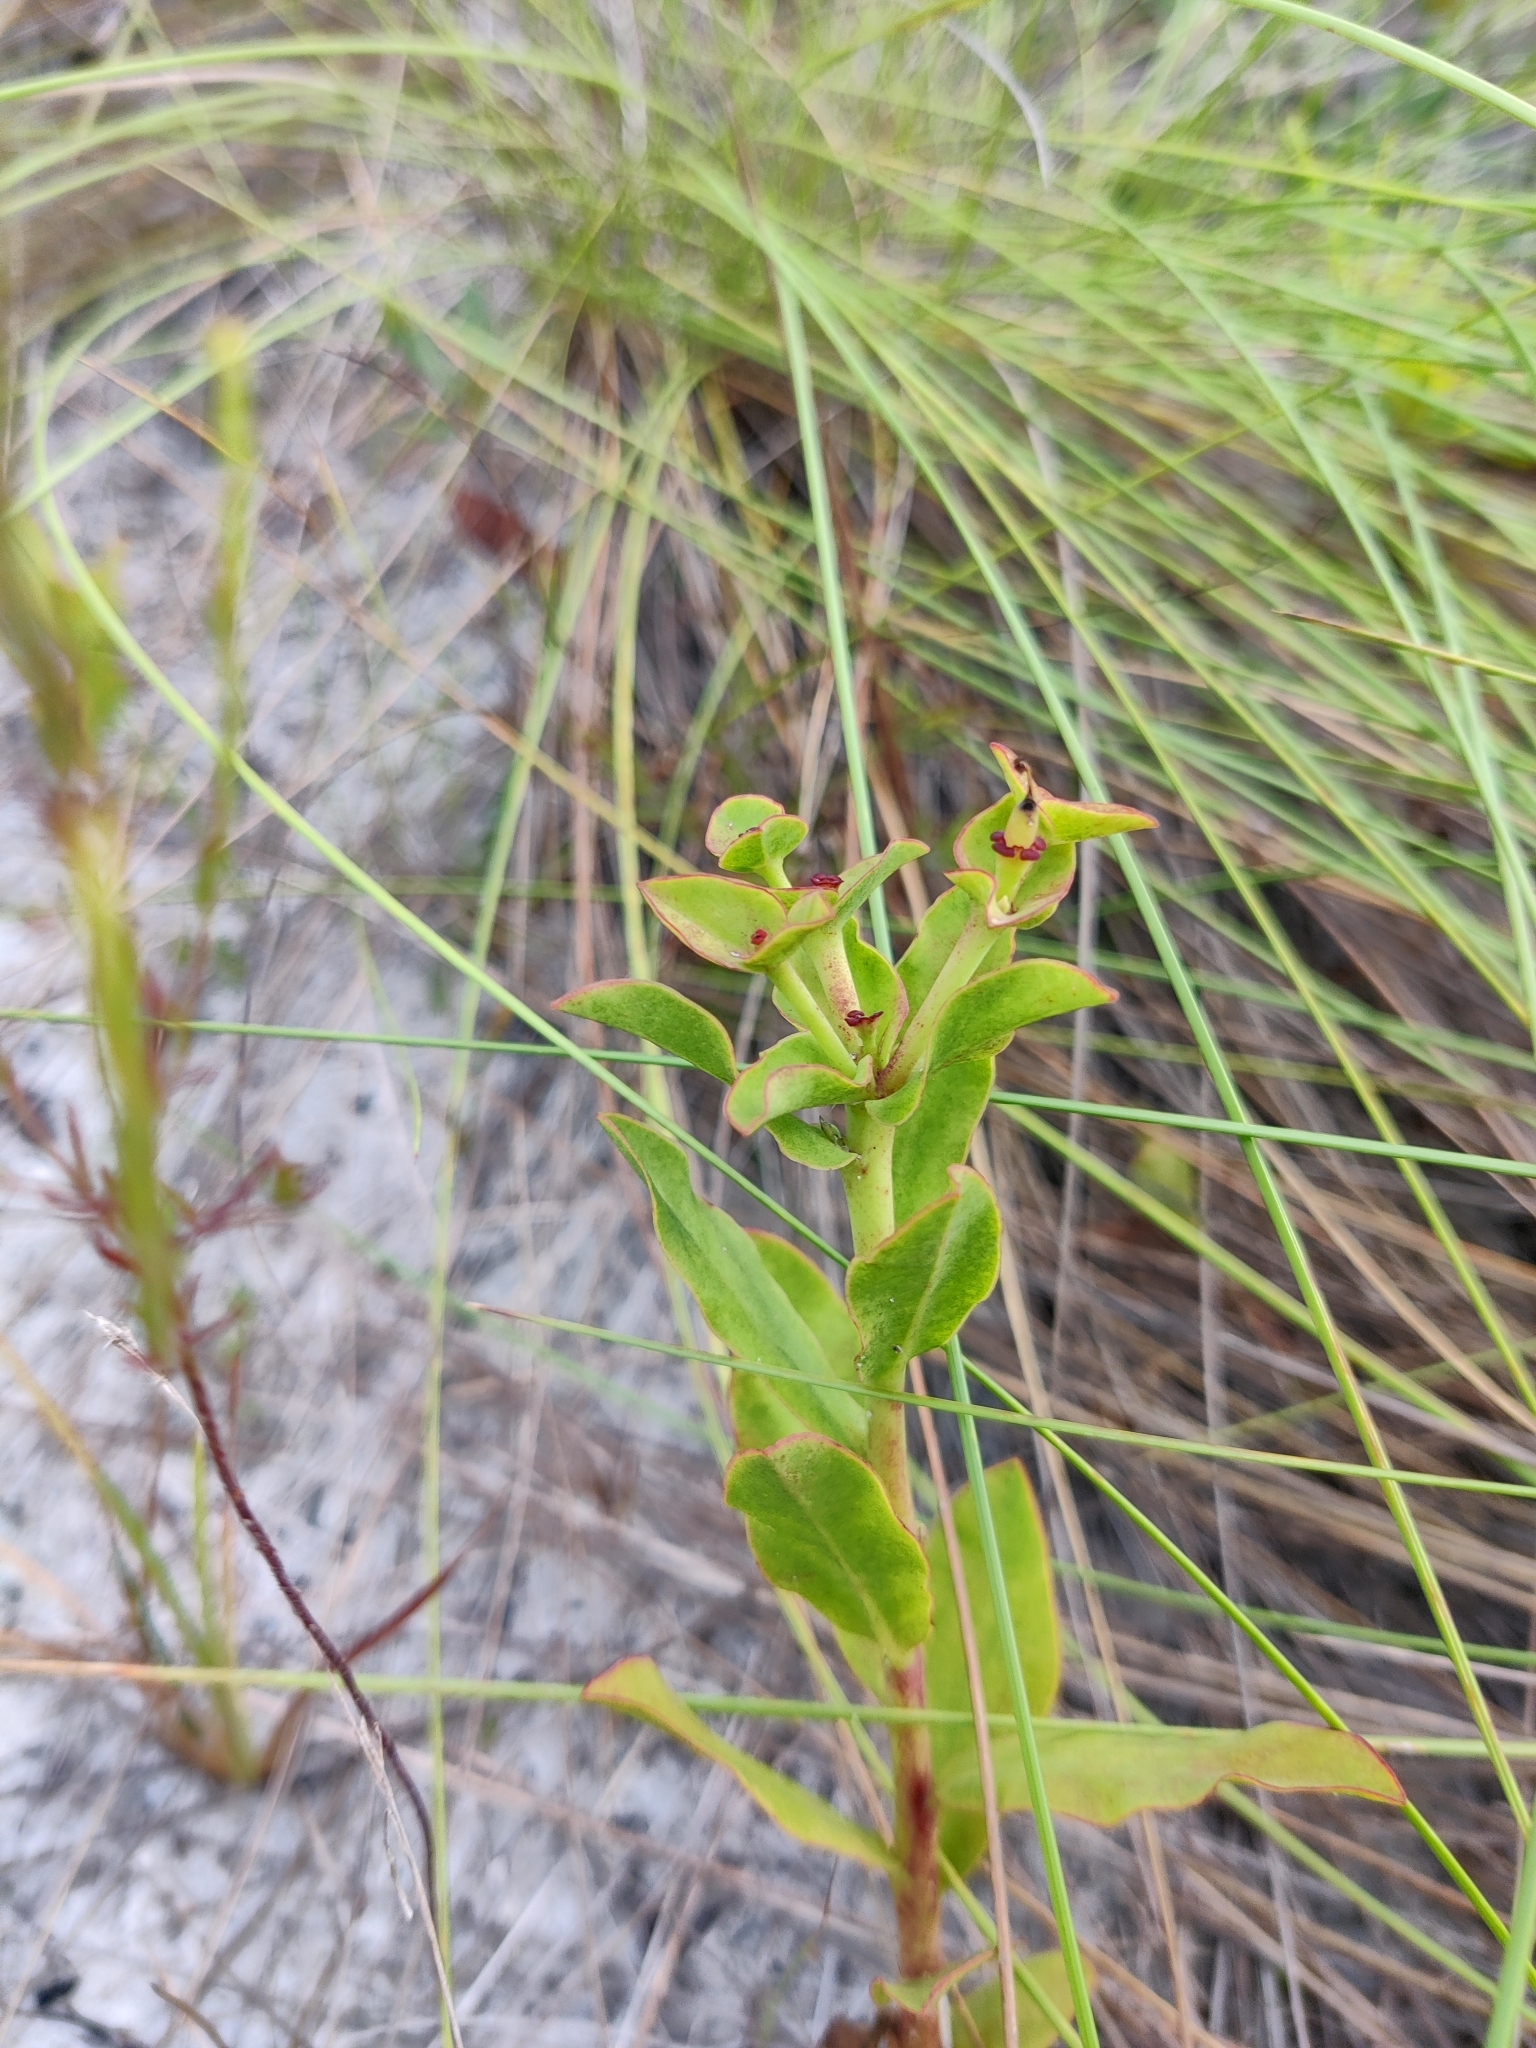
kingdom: Plantae
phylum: Tracheophyta
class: Magnoliopsida
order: Malpighiales
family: Euphorbiaceae
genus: Euphorbia
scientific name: Euphorbia telephioides
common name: Telephus spurge
